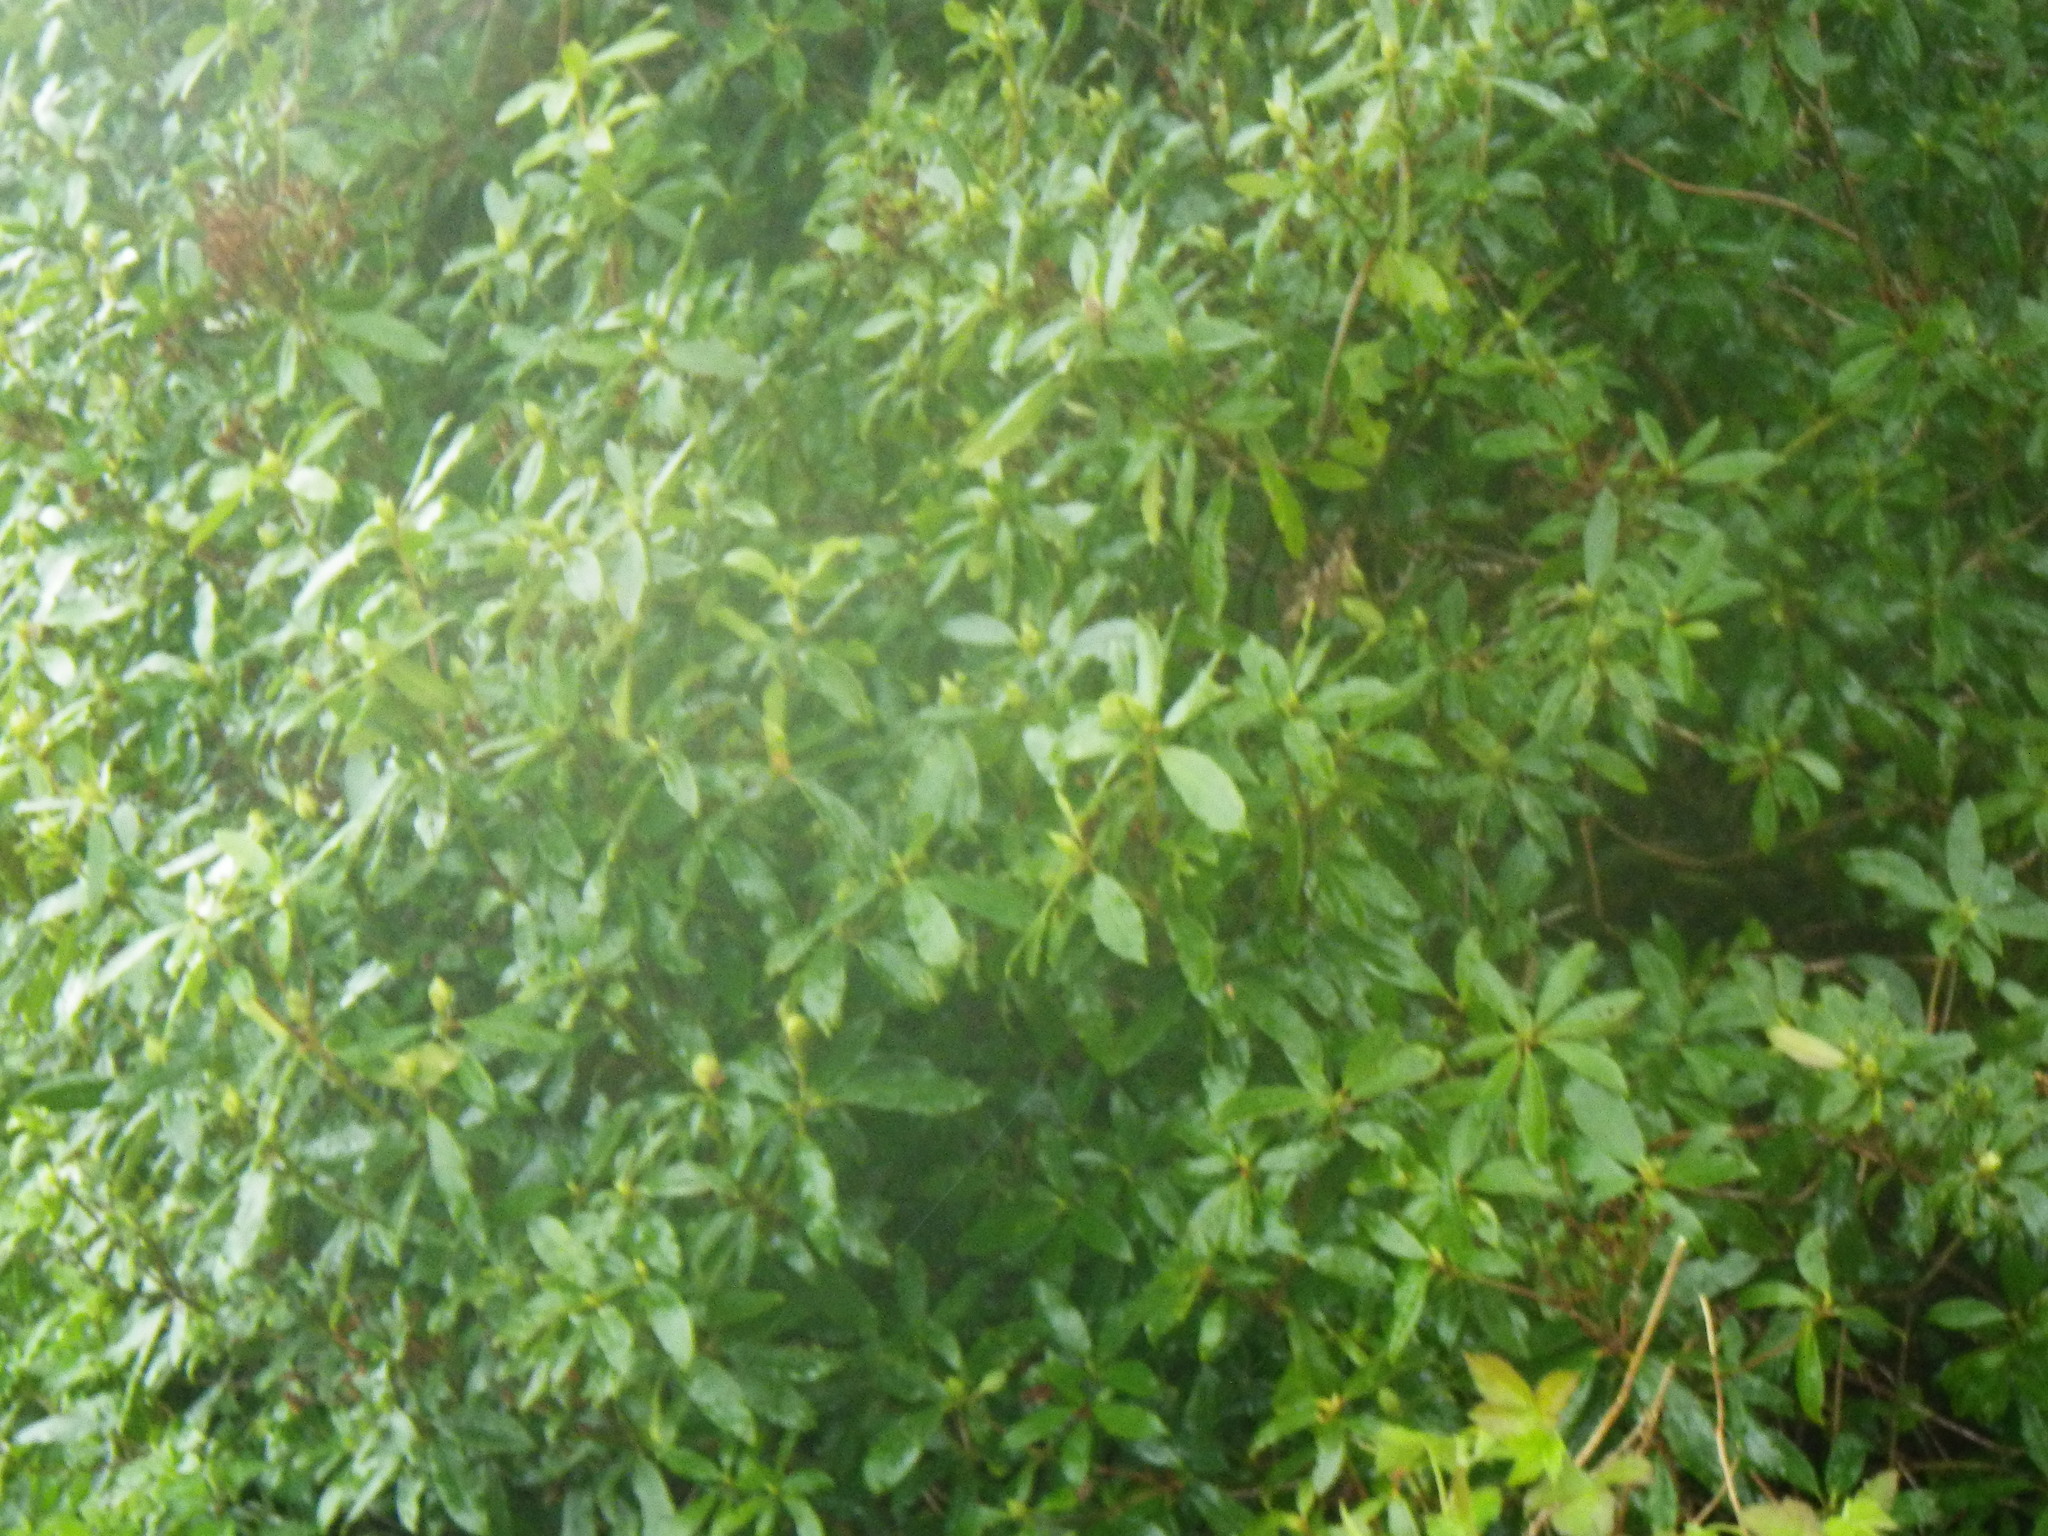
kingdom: Plantae
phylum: Tracheophyta
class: Magnoliopsida
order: Ericales
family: Ericaceae
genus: Rhododendron
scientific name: Rhododendron ponticum
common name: Rhododendron
